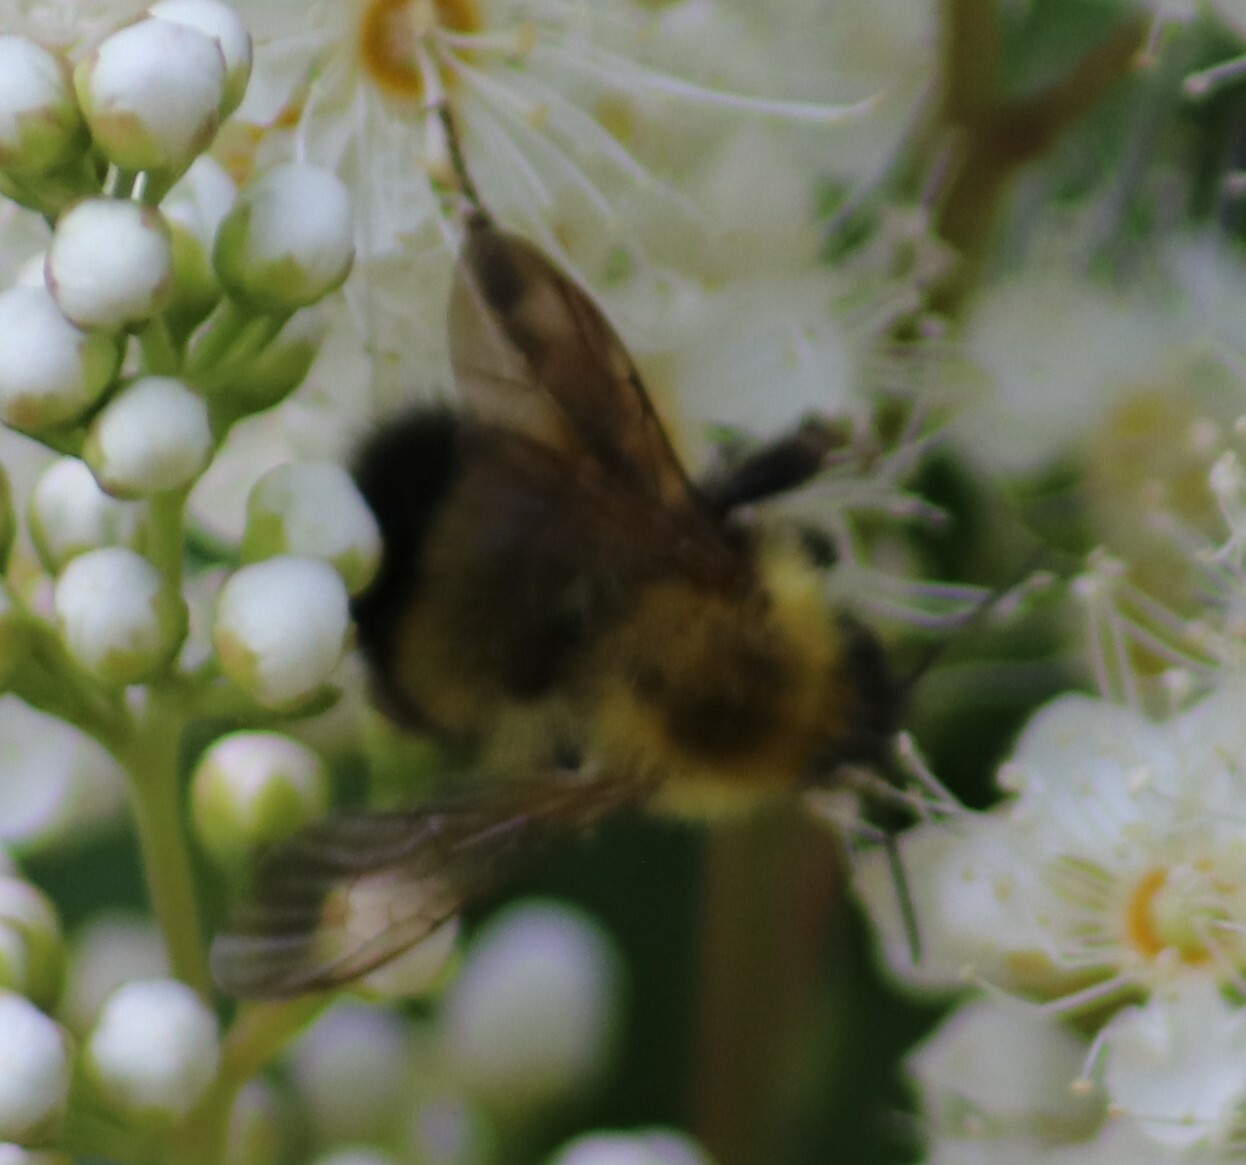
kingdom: Animalia
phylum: Arthropoda
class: Insecta
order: Hymenoptera
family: Apidae
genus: Bombus
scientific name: Bombus perplexus
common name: Confusing bumble bee
